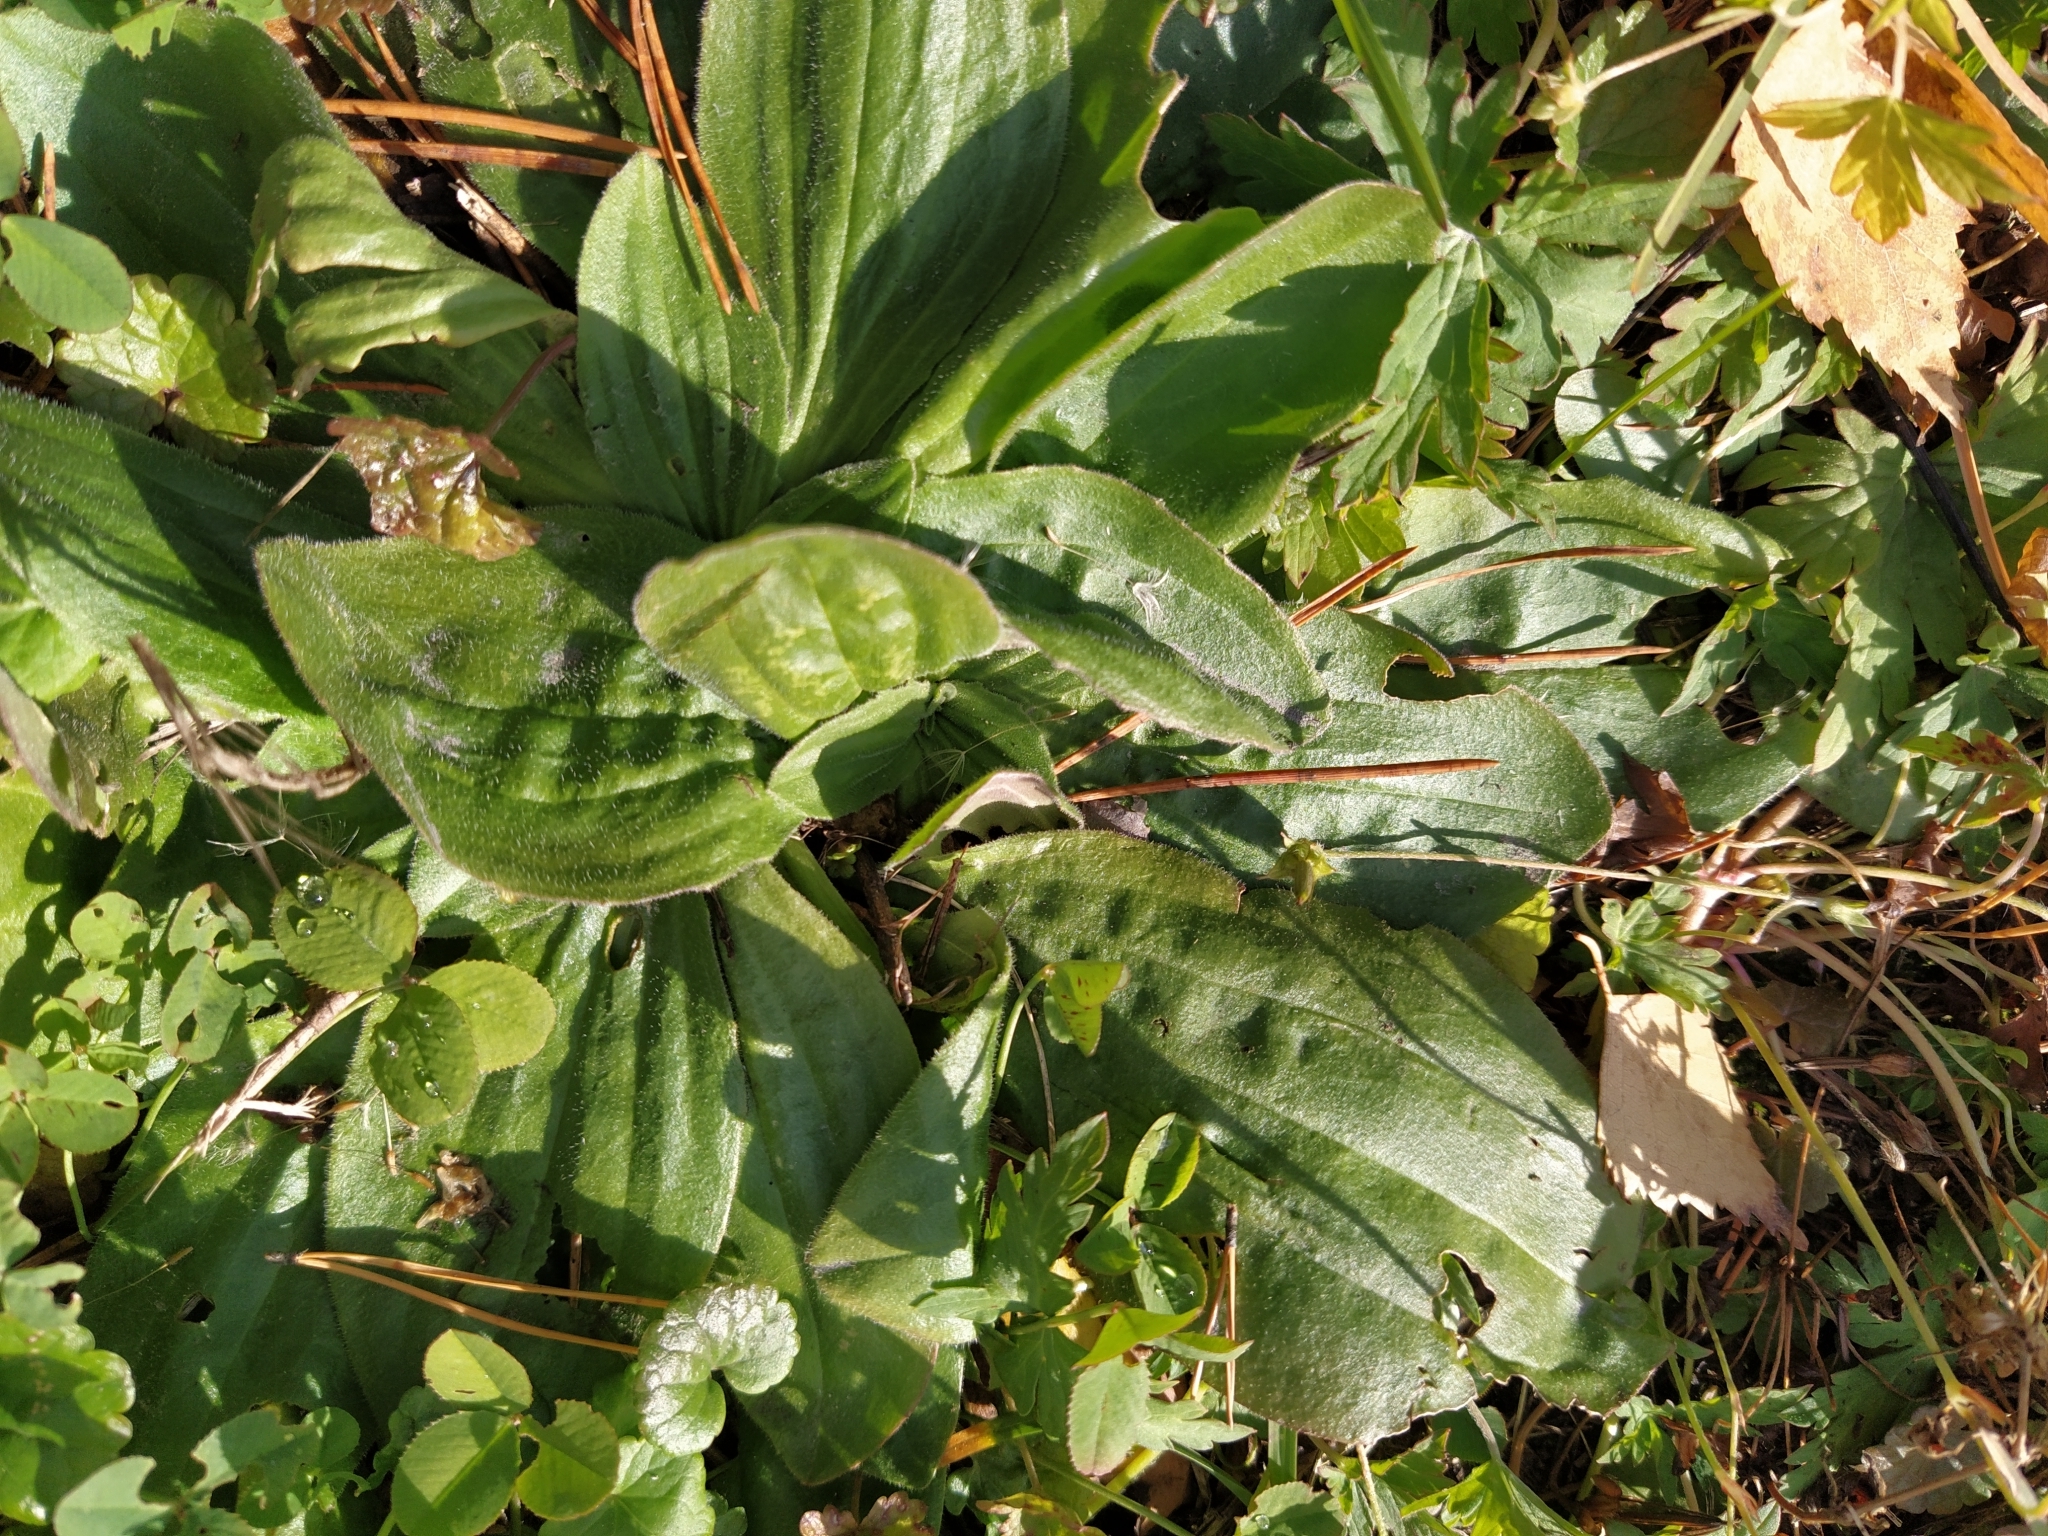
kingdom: Plantae
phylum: Tracheophyta
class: Magnoliopsida
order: Lamiales
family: Plantaginaceae
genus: Plantago
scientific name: Plantago media
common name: Hoary plantain
